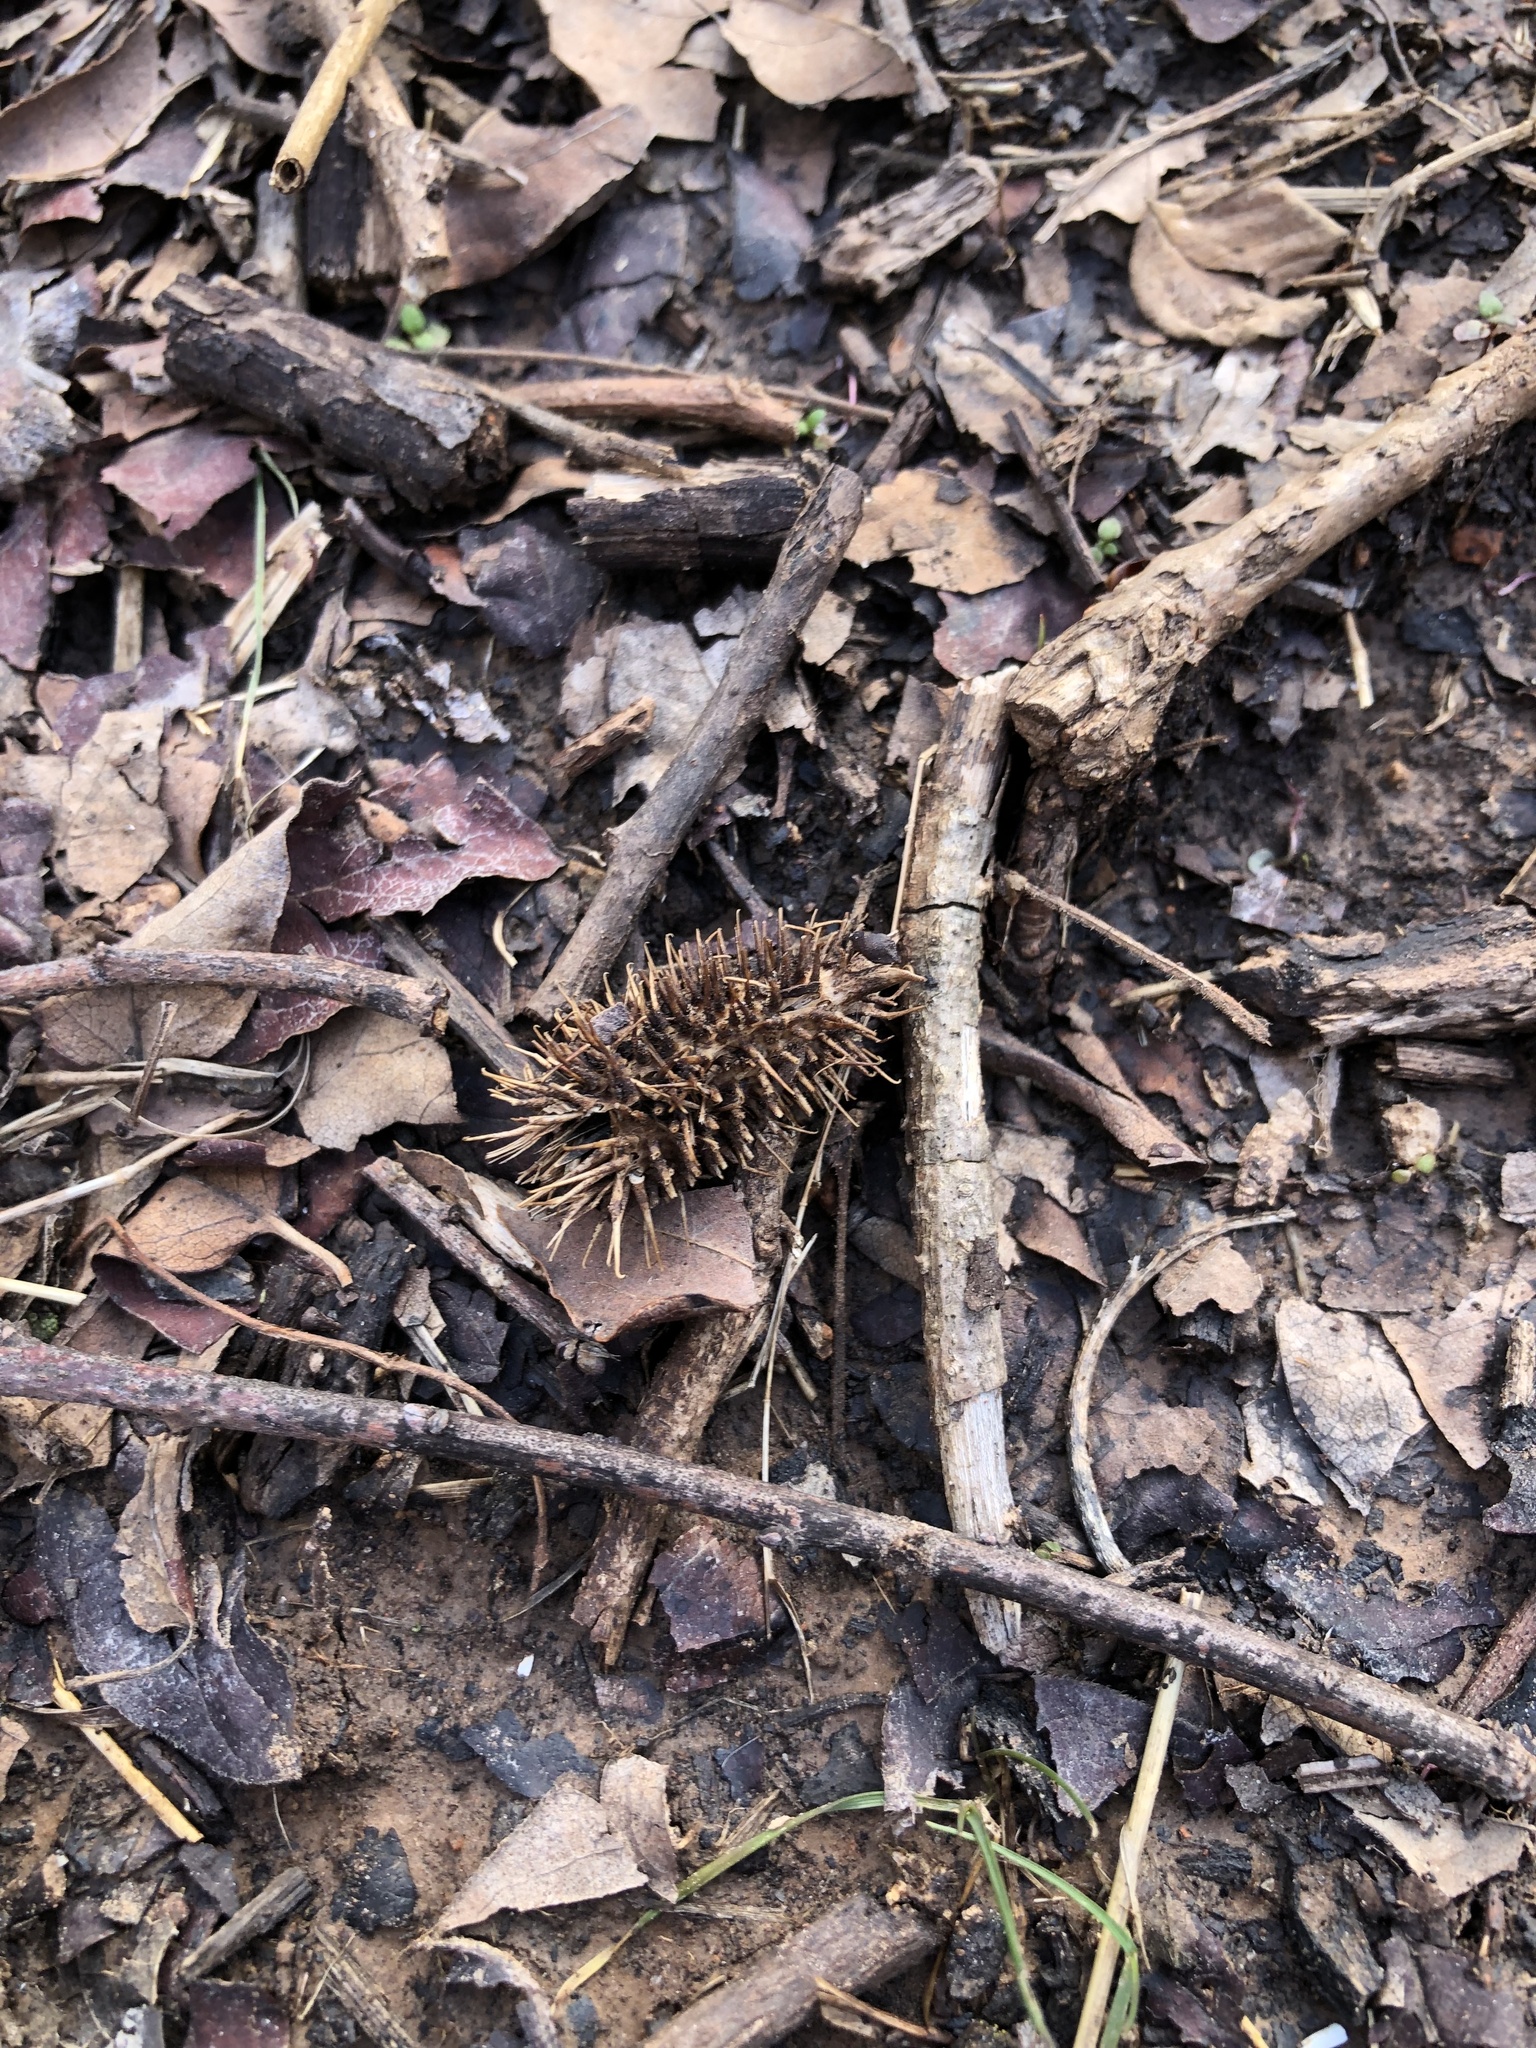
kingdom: Plantae
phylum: Tracheophyta
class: Magnoliopsida
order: Asterales
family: Asteraceae
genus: Xanthium
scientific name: Xanthium strumarium
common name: Rough cocklebur
